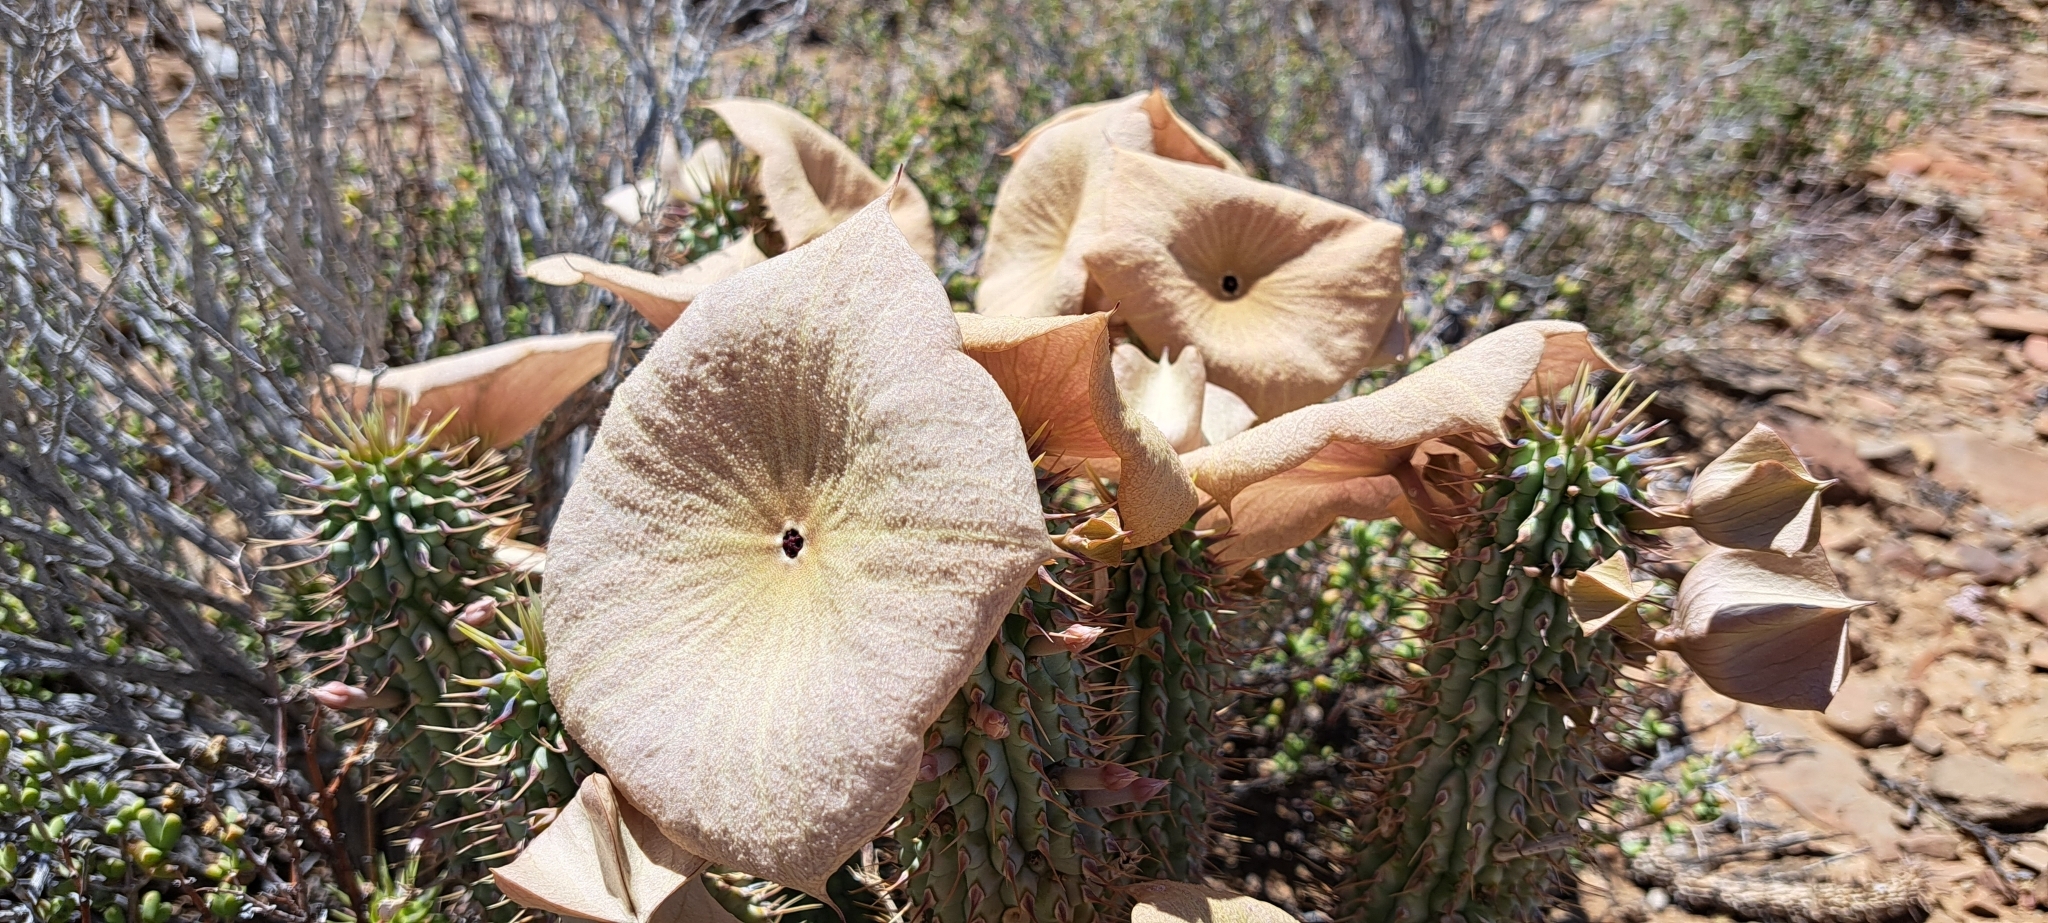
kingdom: Plantae
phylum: Tracheophyta
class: Magnoliopsida
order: Gentianales
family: Apocynaceae
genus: Hoodia
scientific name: Hoodia gordonii
